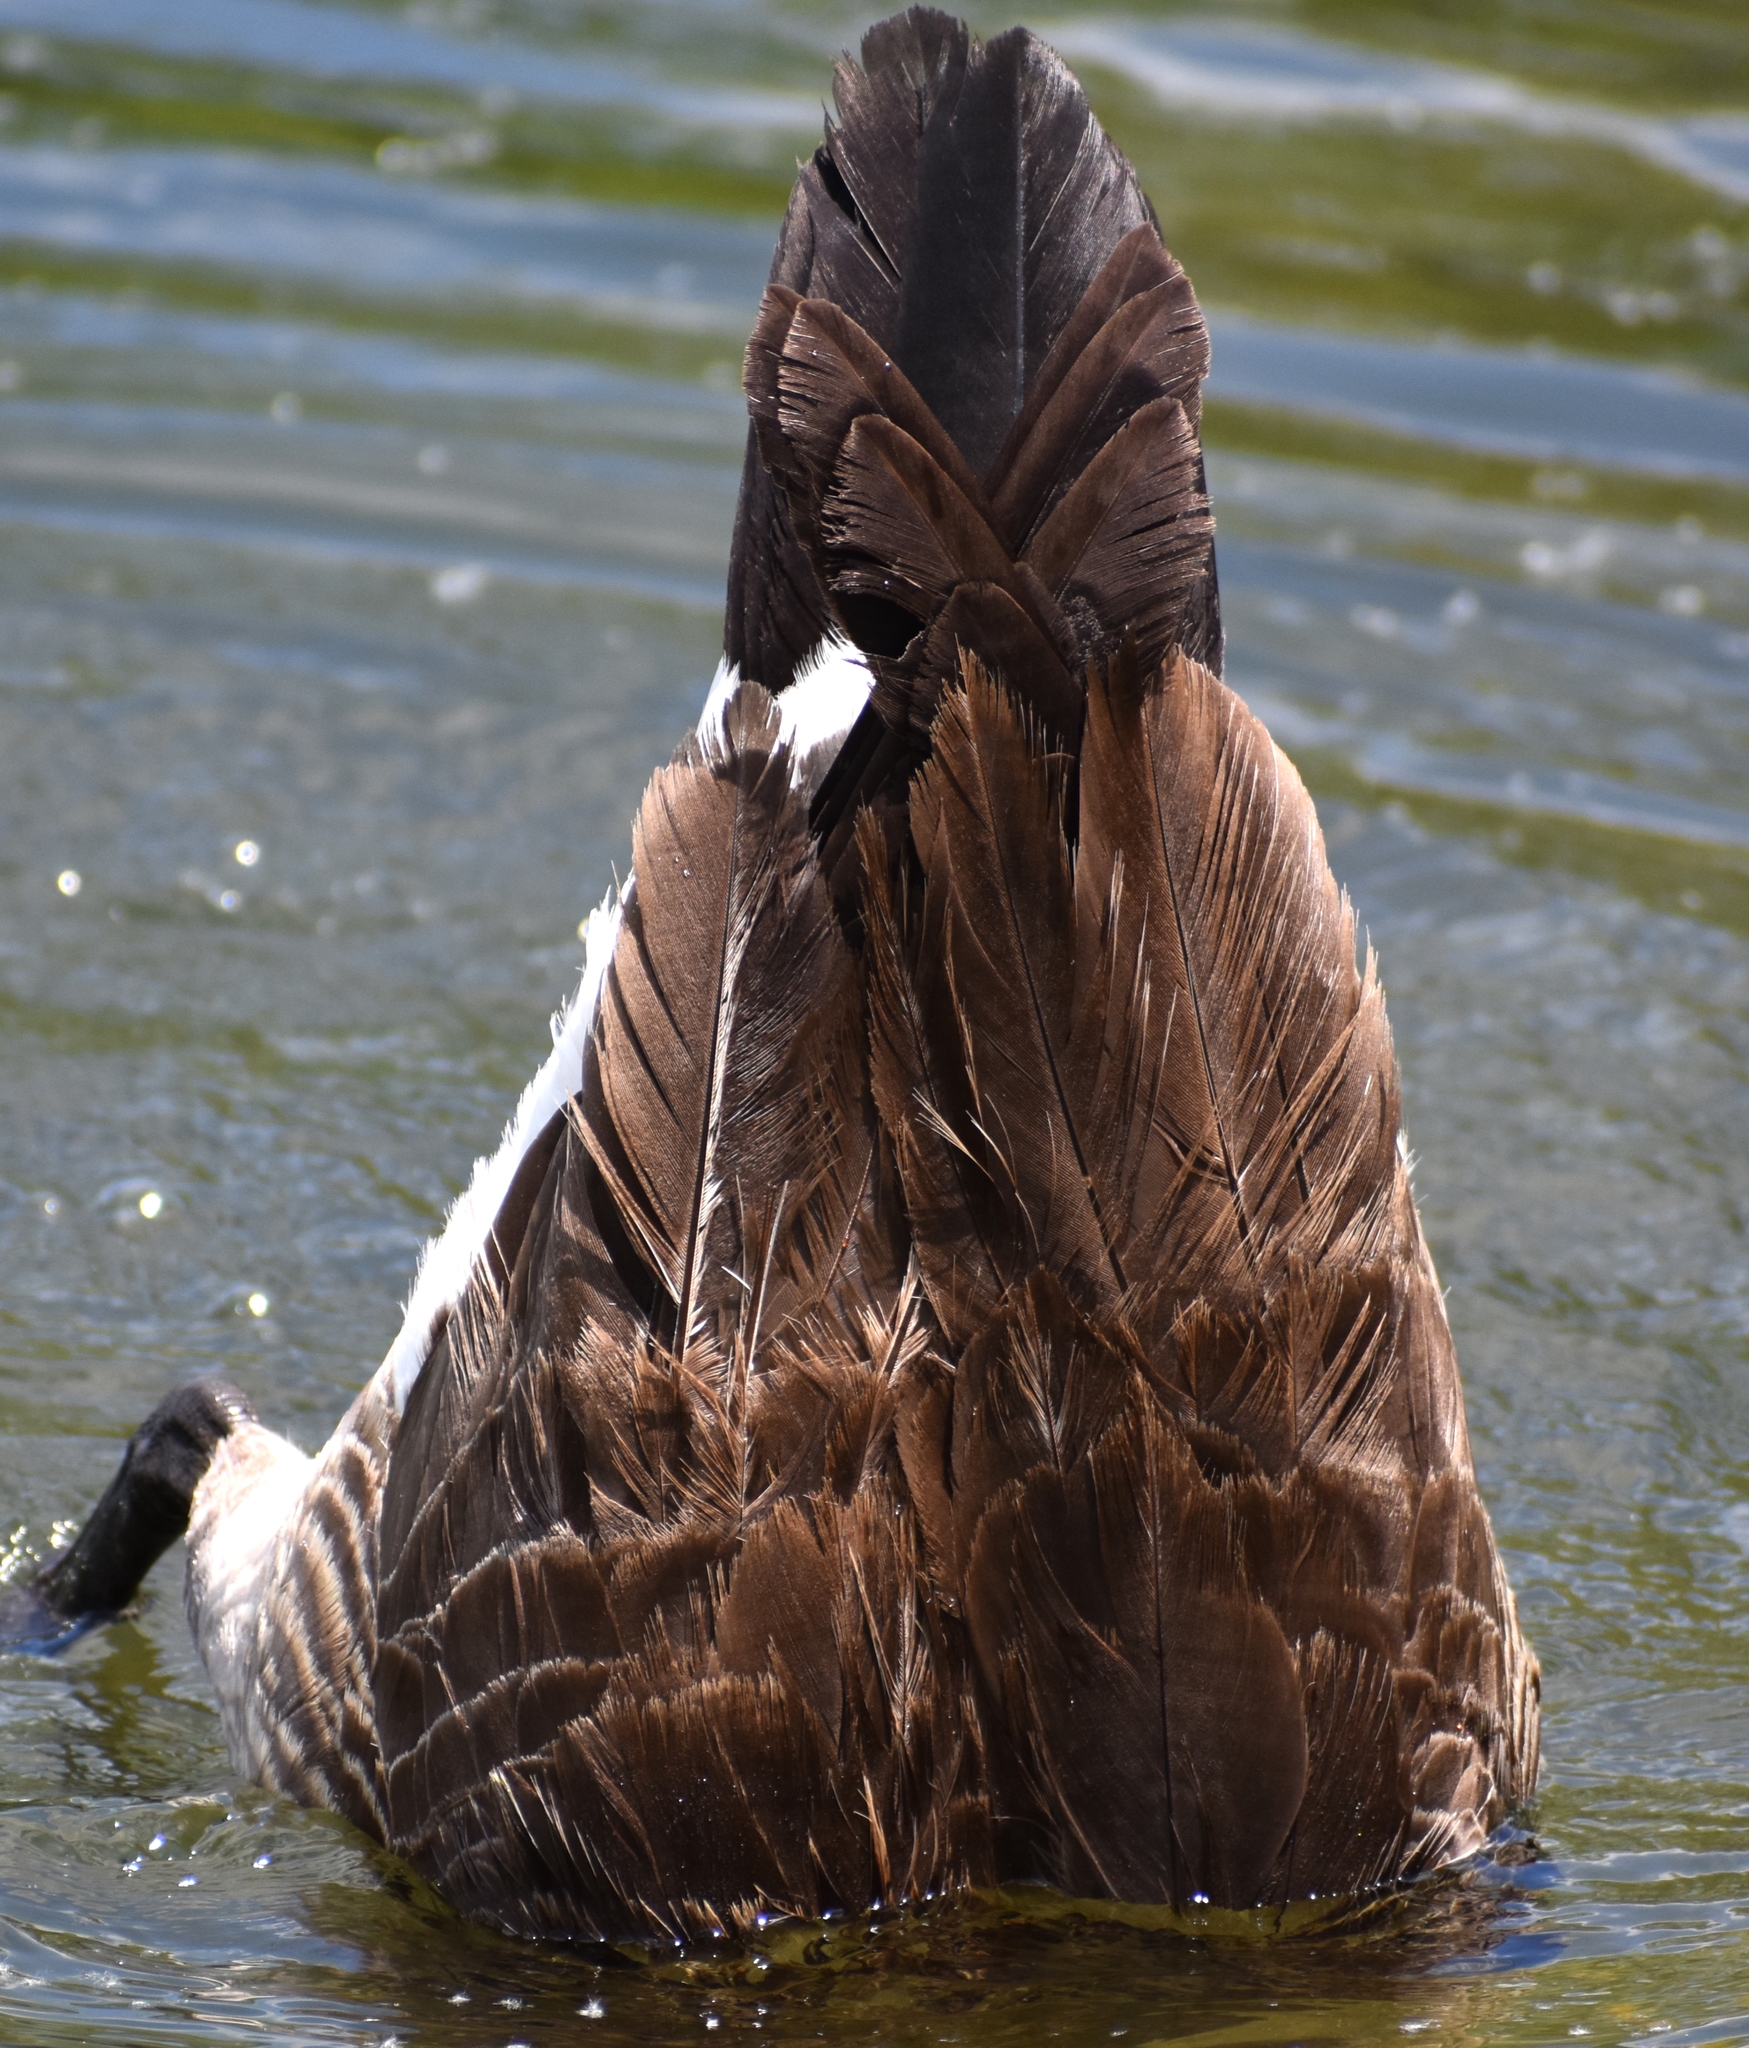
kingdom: Animalia
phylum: Chordata
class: Aves
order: Anseriformes
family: Anatidae
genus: Branta
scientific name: Branta canadensis
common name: Canada goose
